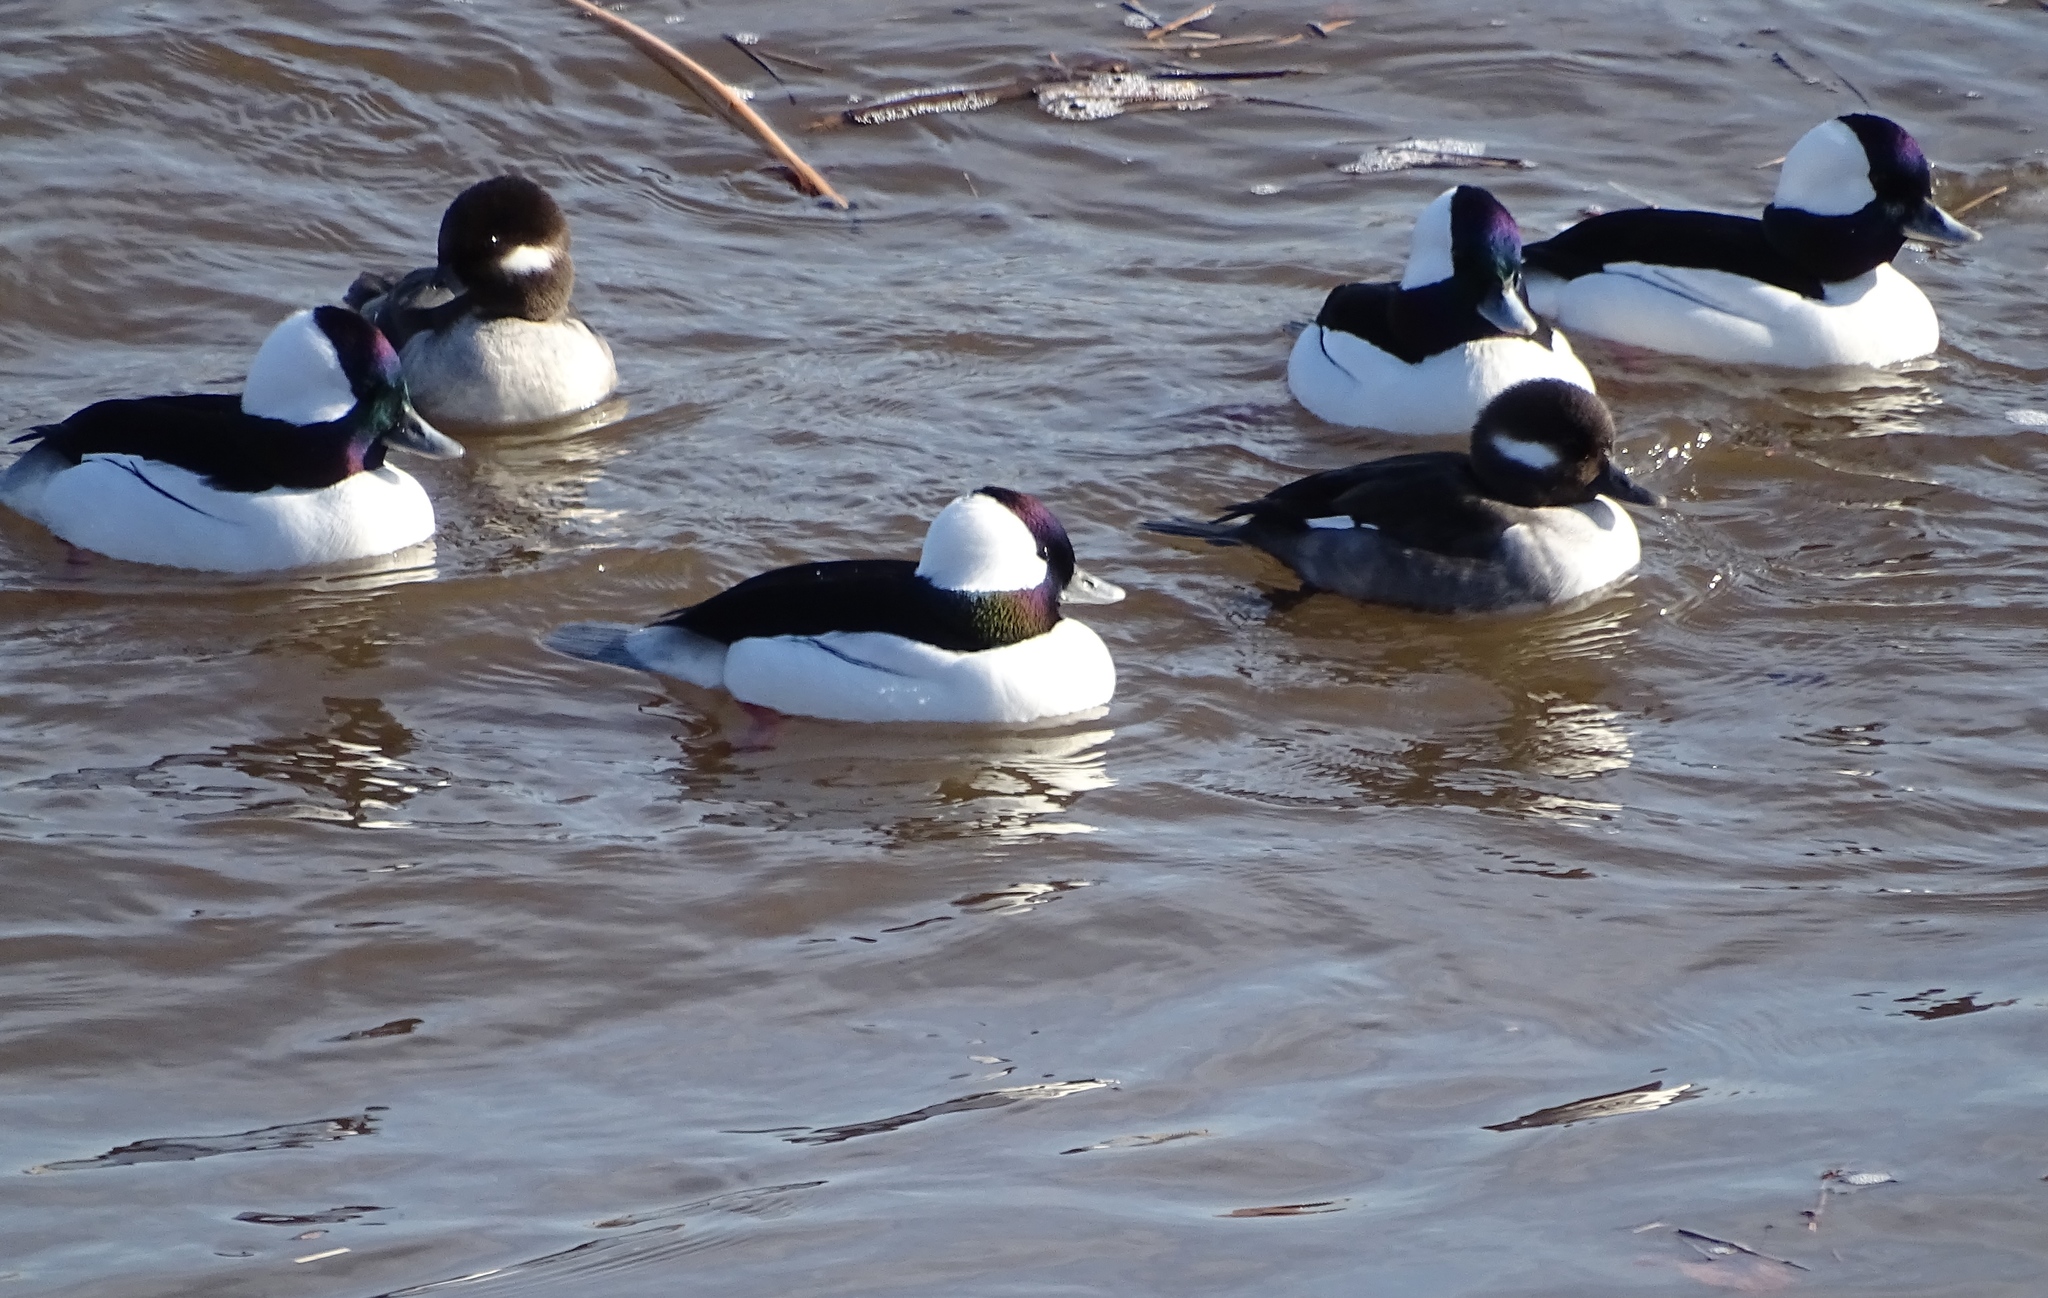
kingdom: Animalia
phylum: Chordata
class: Aves
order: Anseriformes
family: Anatidae
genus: Bucephala
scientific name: Bucephala albeola
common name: Bufflehead
